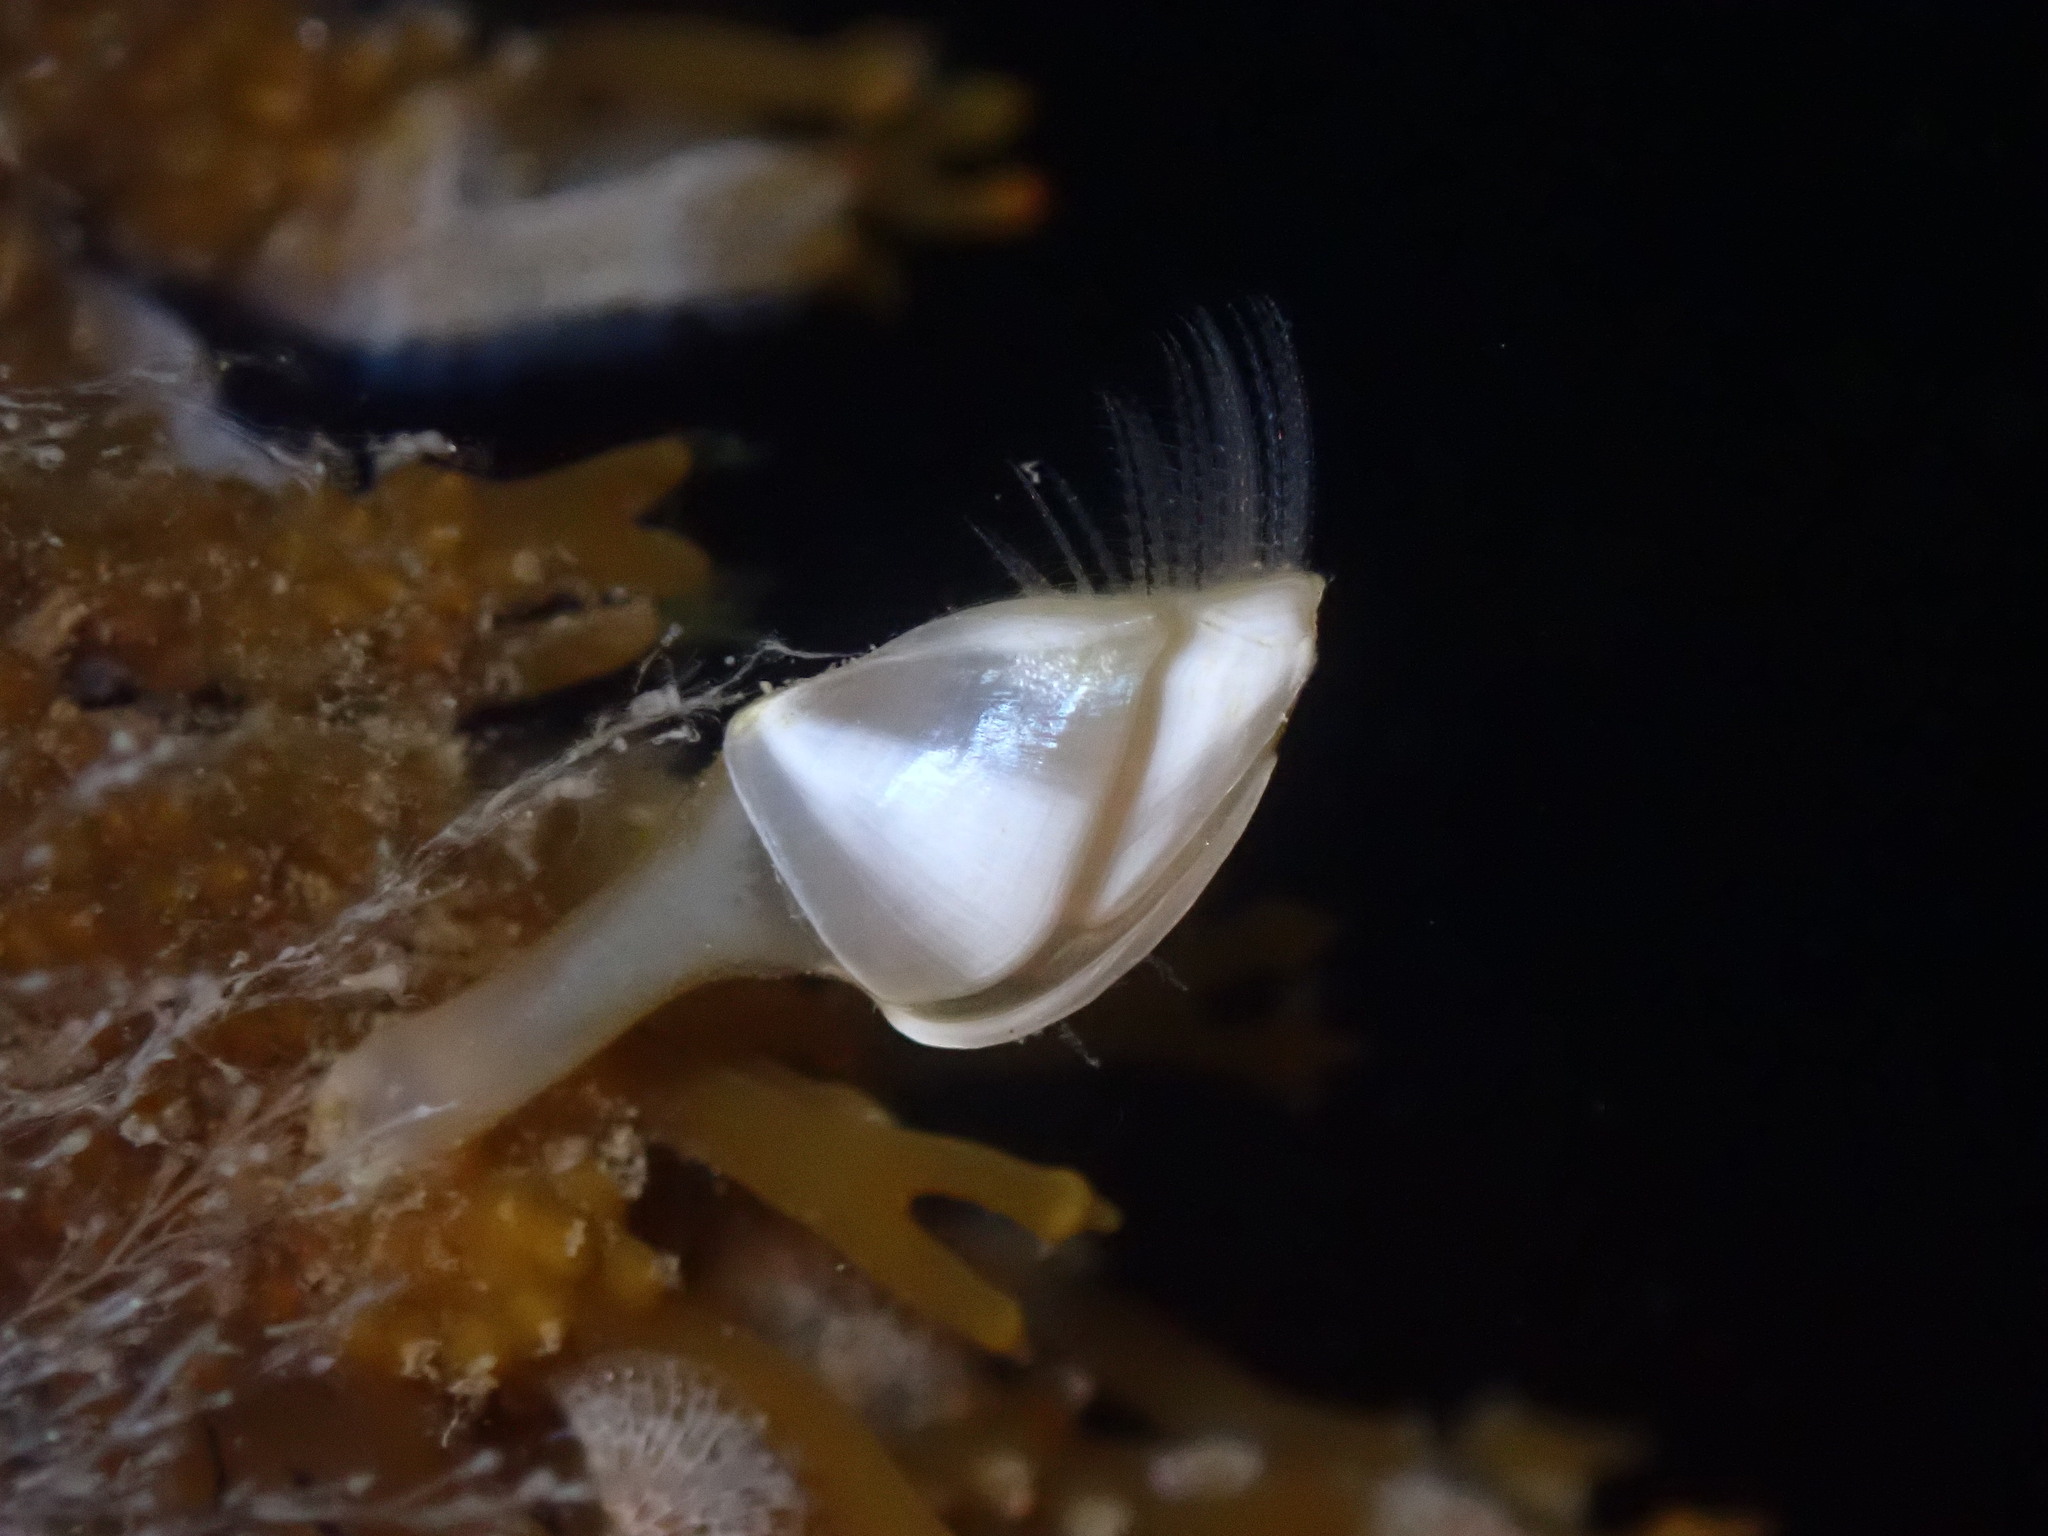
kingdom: Animalia
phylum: Arthropoda
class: Maxillopoda
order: Pedunculata
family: Lepadidae
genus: Lepas
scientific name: Lepas pacifica
